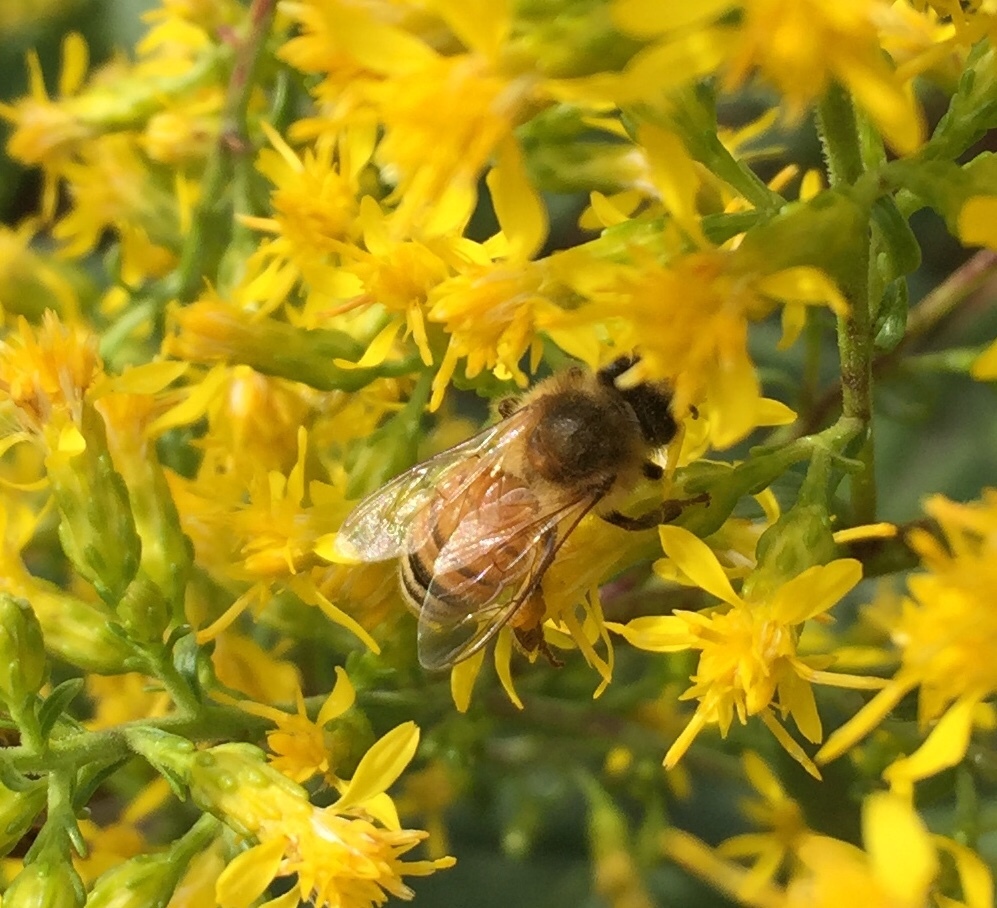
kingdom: Animalia
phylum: Arthropoda
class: Insecta
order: Hymenoptera
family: Apidae
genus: Apis
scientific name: Apis mellifera
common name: Honey bee
